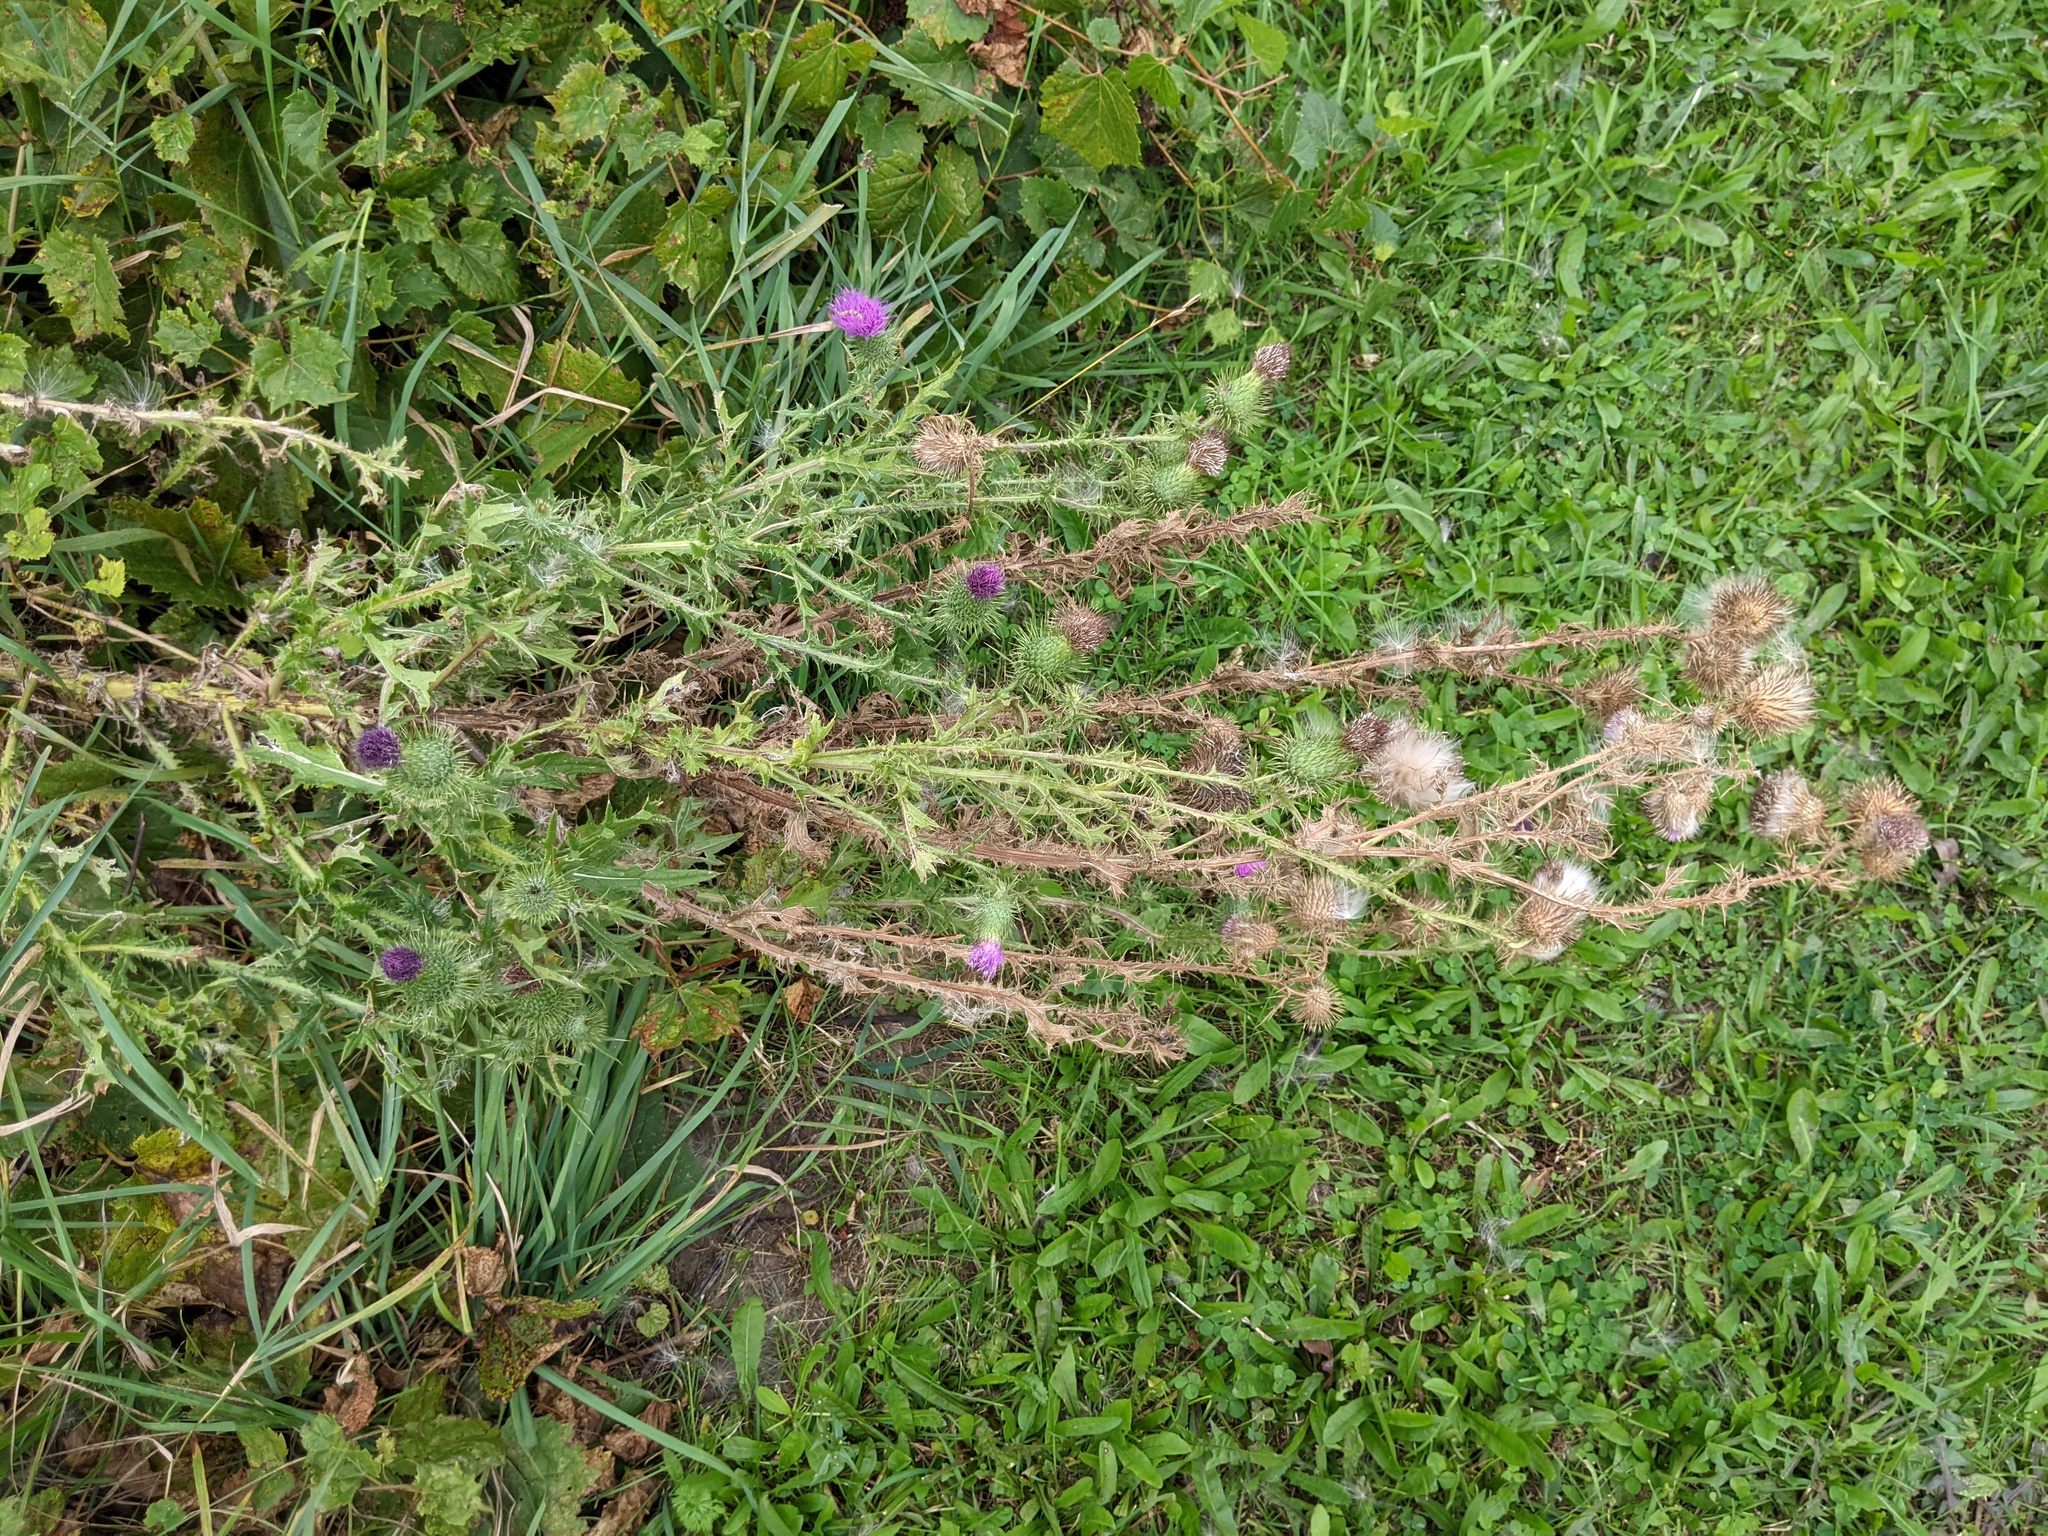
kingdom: Plantae
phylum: Tracheophyta
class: Magnoliopsida
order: Asterales
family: Asteraceae
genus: Cirsium
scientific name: Cirsium vulgare
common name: Bull thistle
